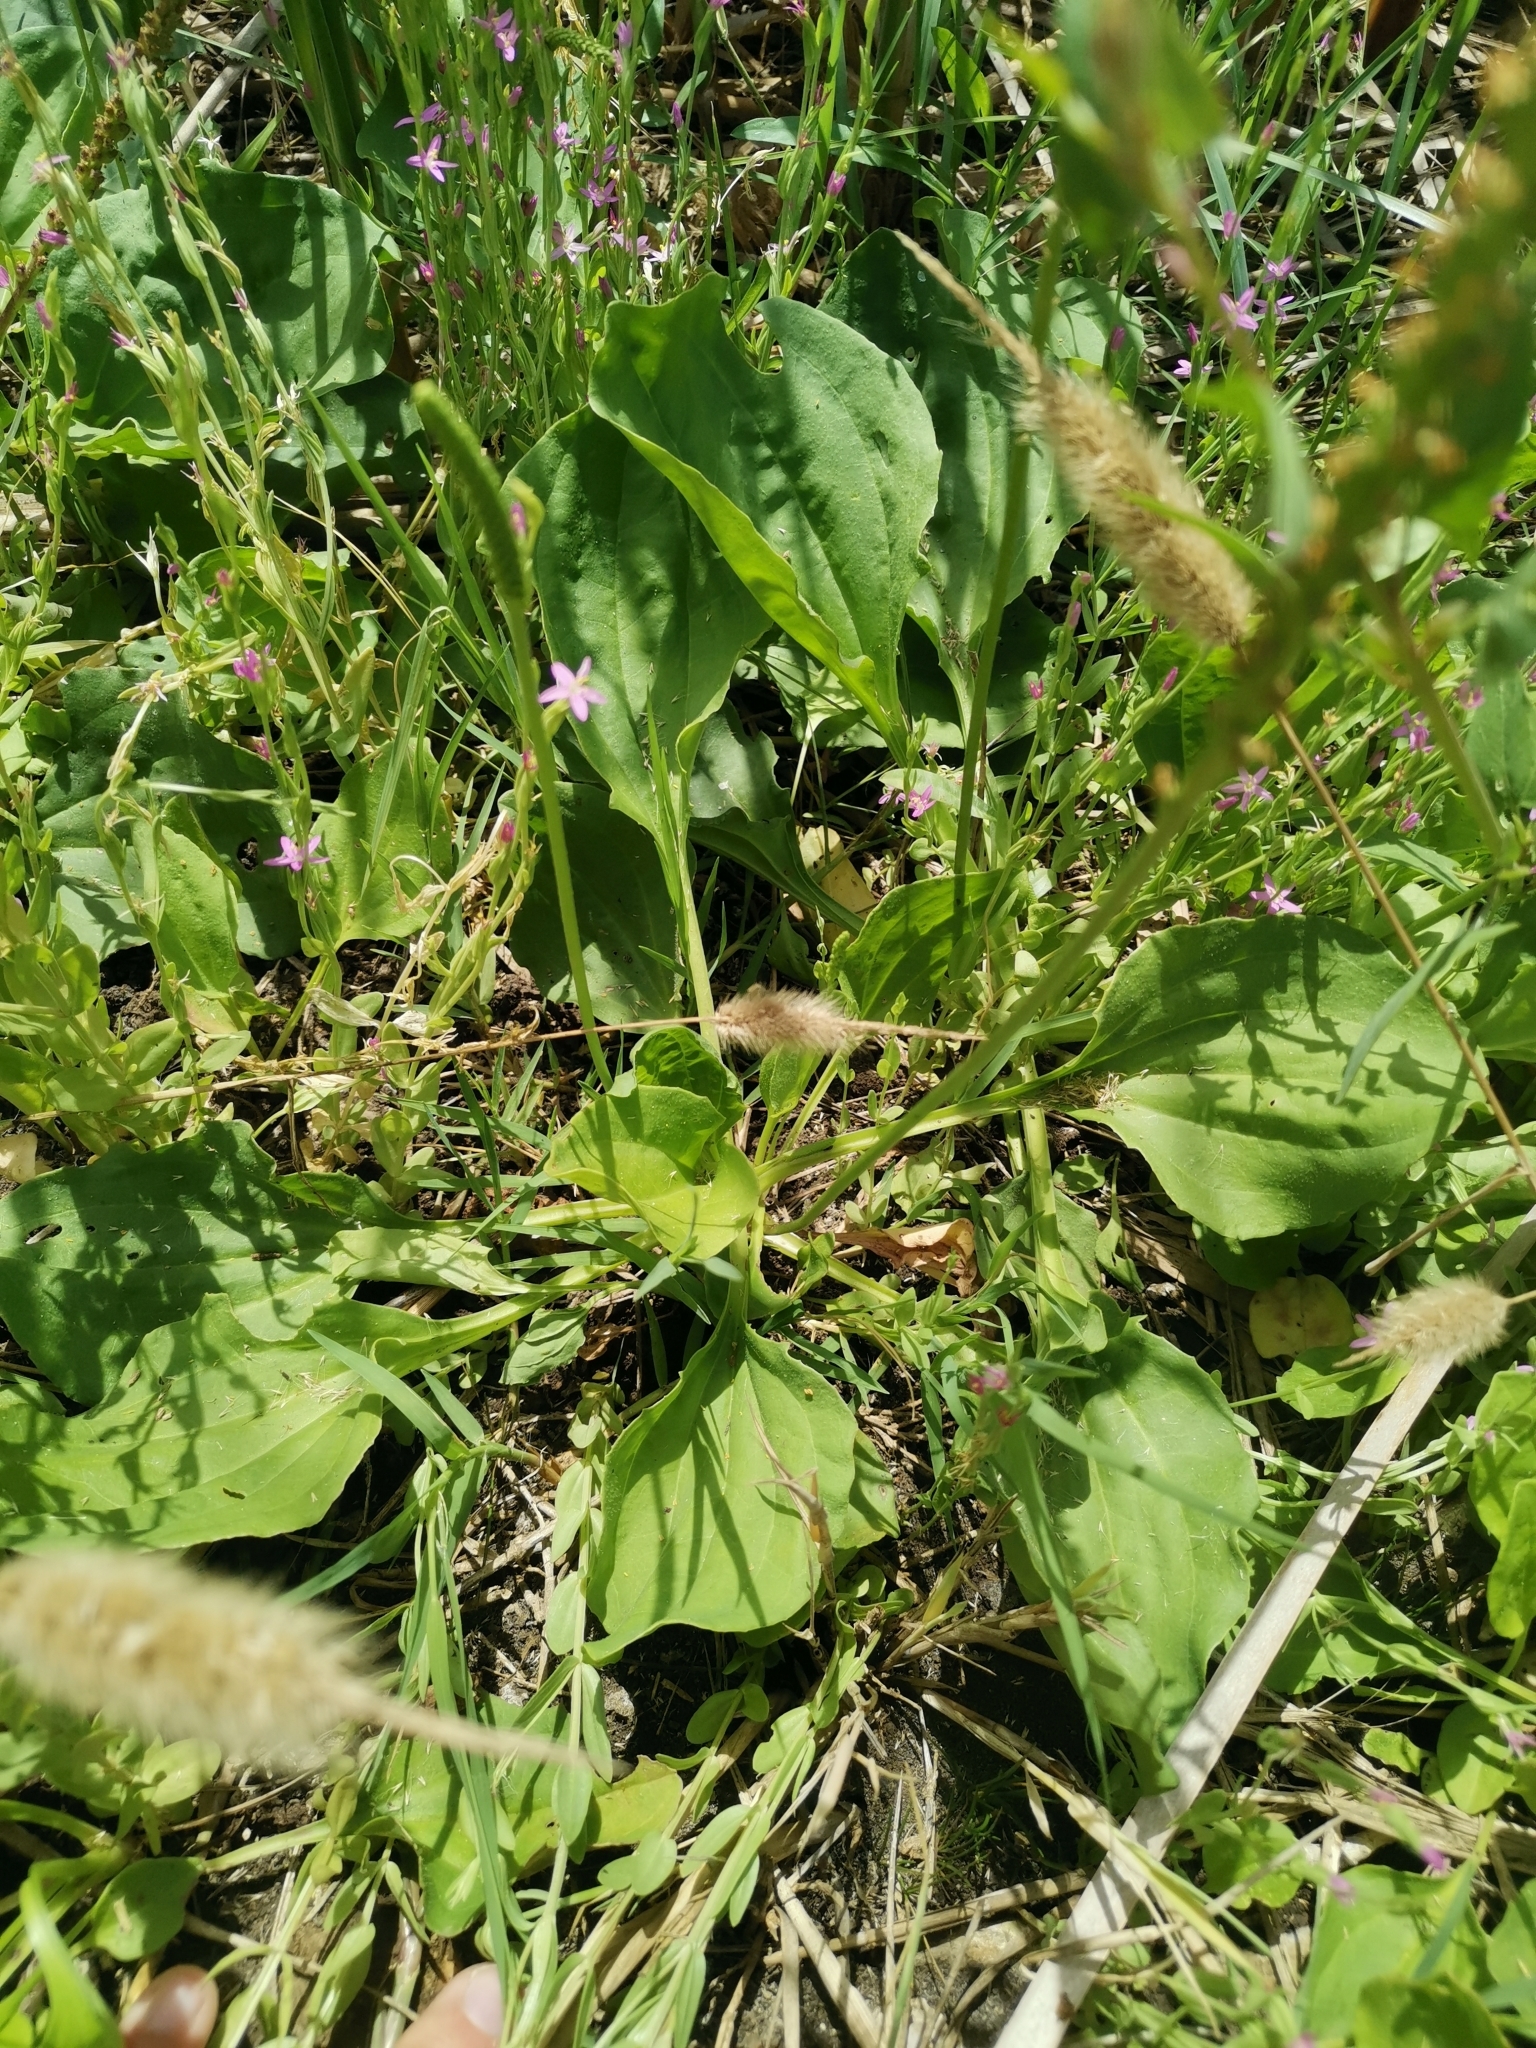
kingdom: Plantae
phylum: Tracheophyta
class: Magnoliopsida
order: Lamiales
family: Plantaginaceae
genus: Plantago
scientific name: Plantago major
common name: Common plantain
